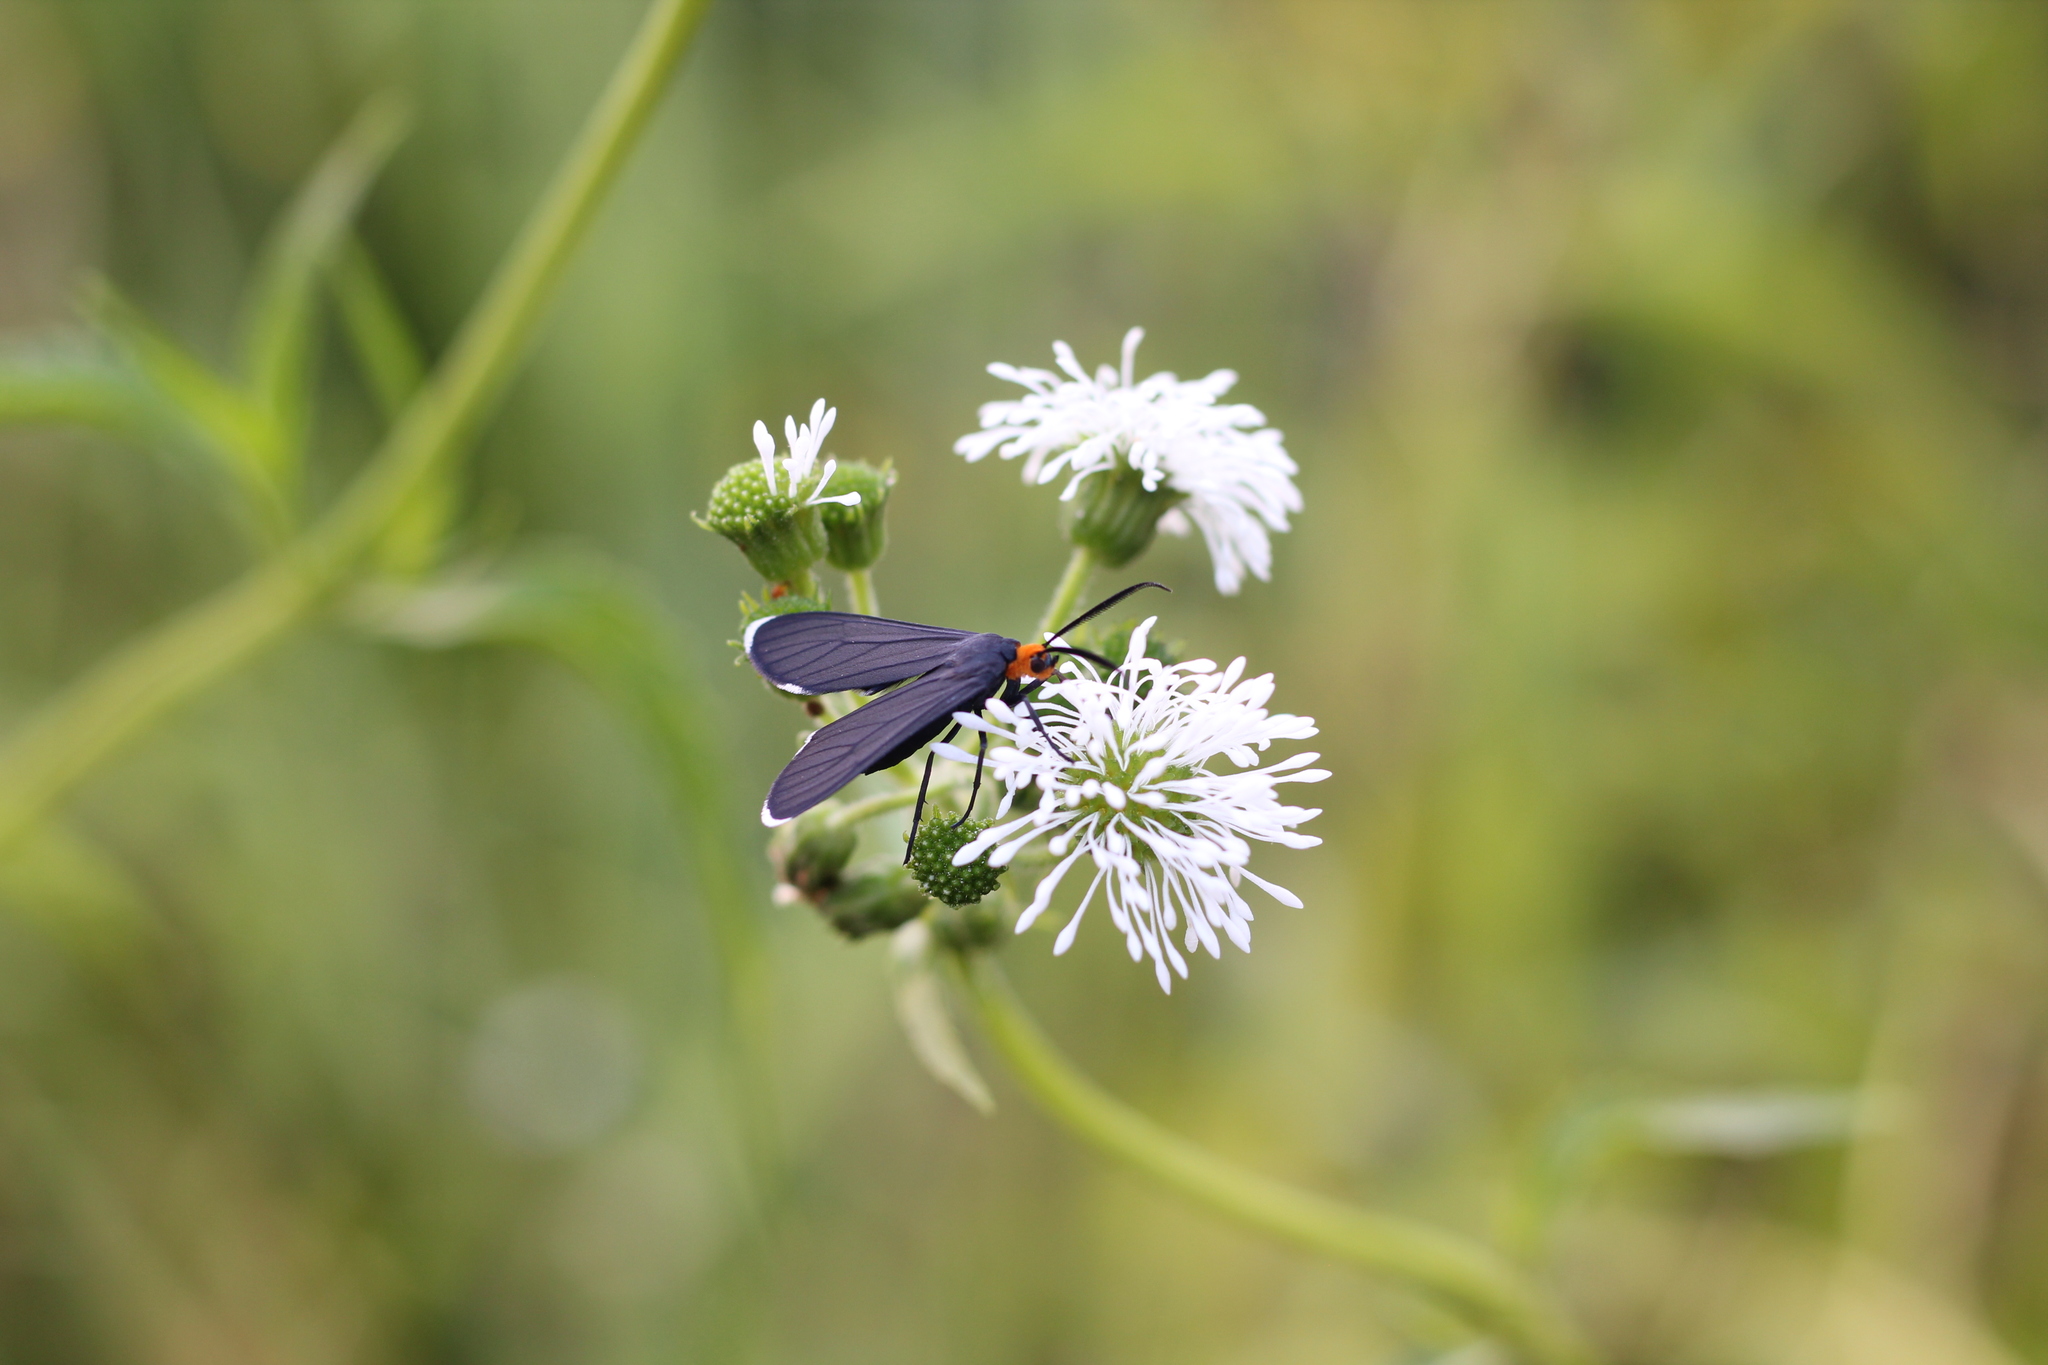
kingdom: Animalia
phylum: Arthropoda
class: Insecta
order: Lepidoptera
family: Erebidae
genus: Ctenucha
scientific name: Ctenucha rubriceps
